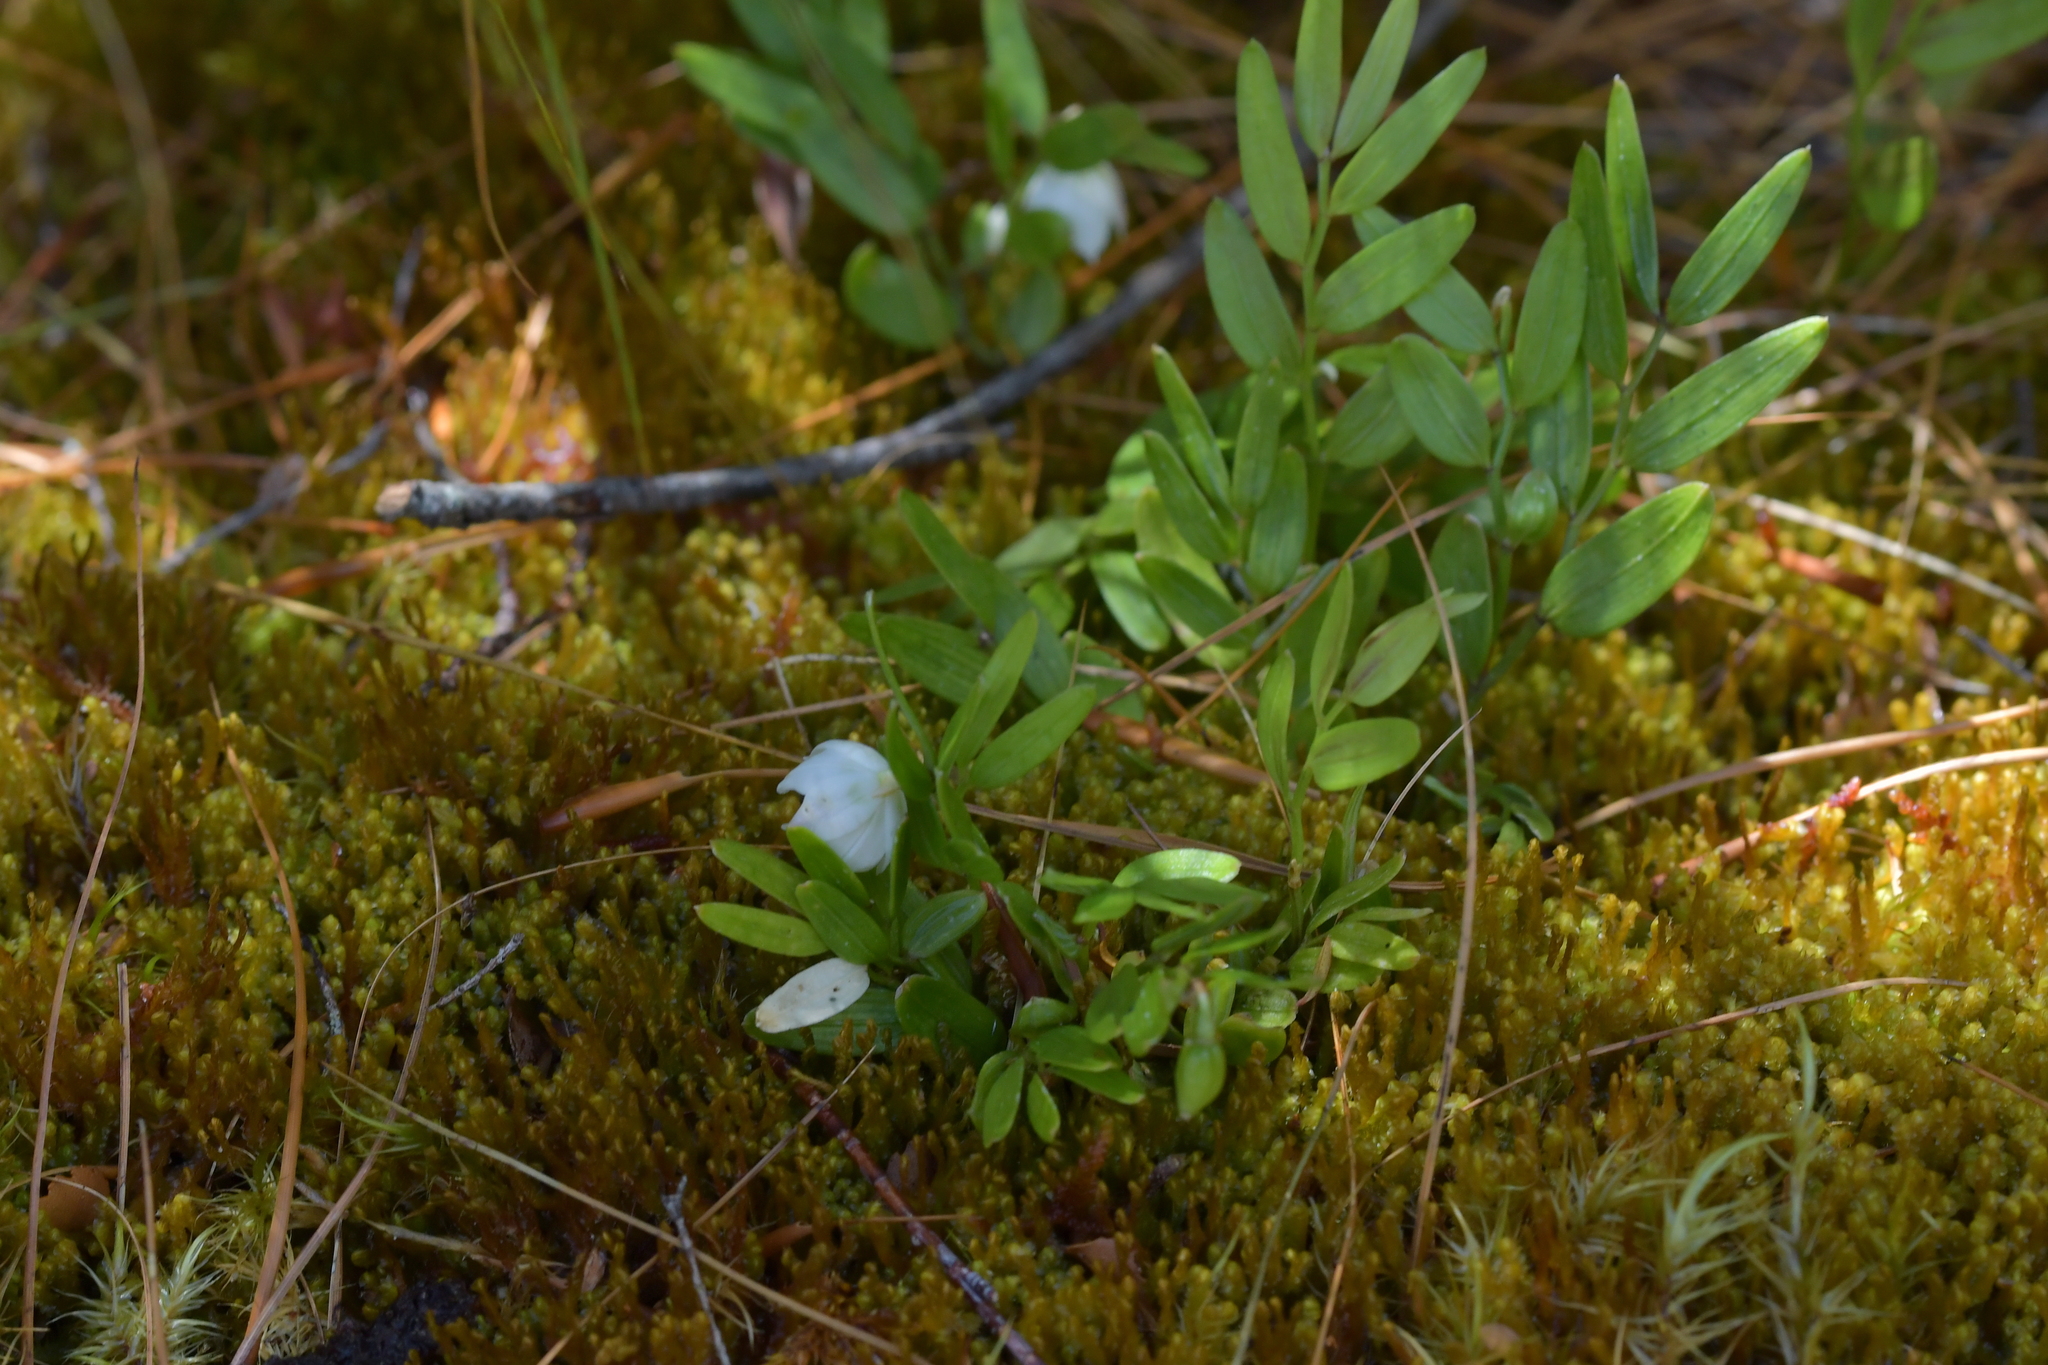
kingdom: Plantae
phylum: Tracheophyta
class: Liliopsida
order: Liliales
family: Alstroemeriaceae
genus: Luzuriaga
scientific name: Luzuriaga parviflora
